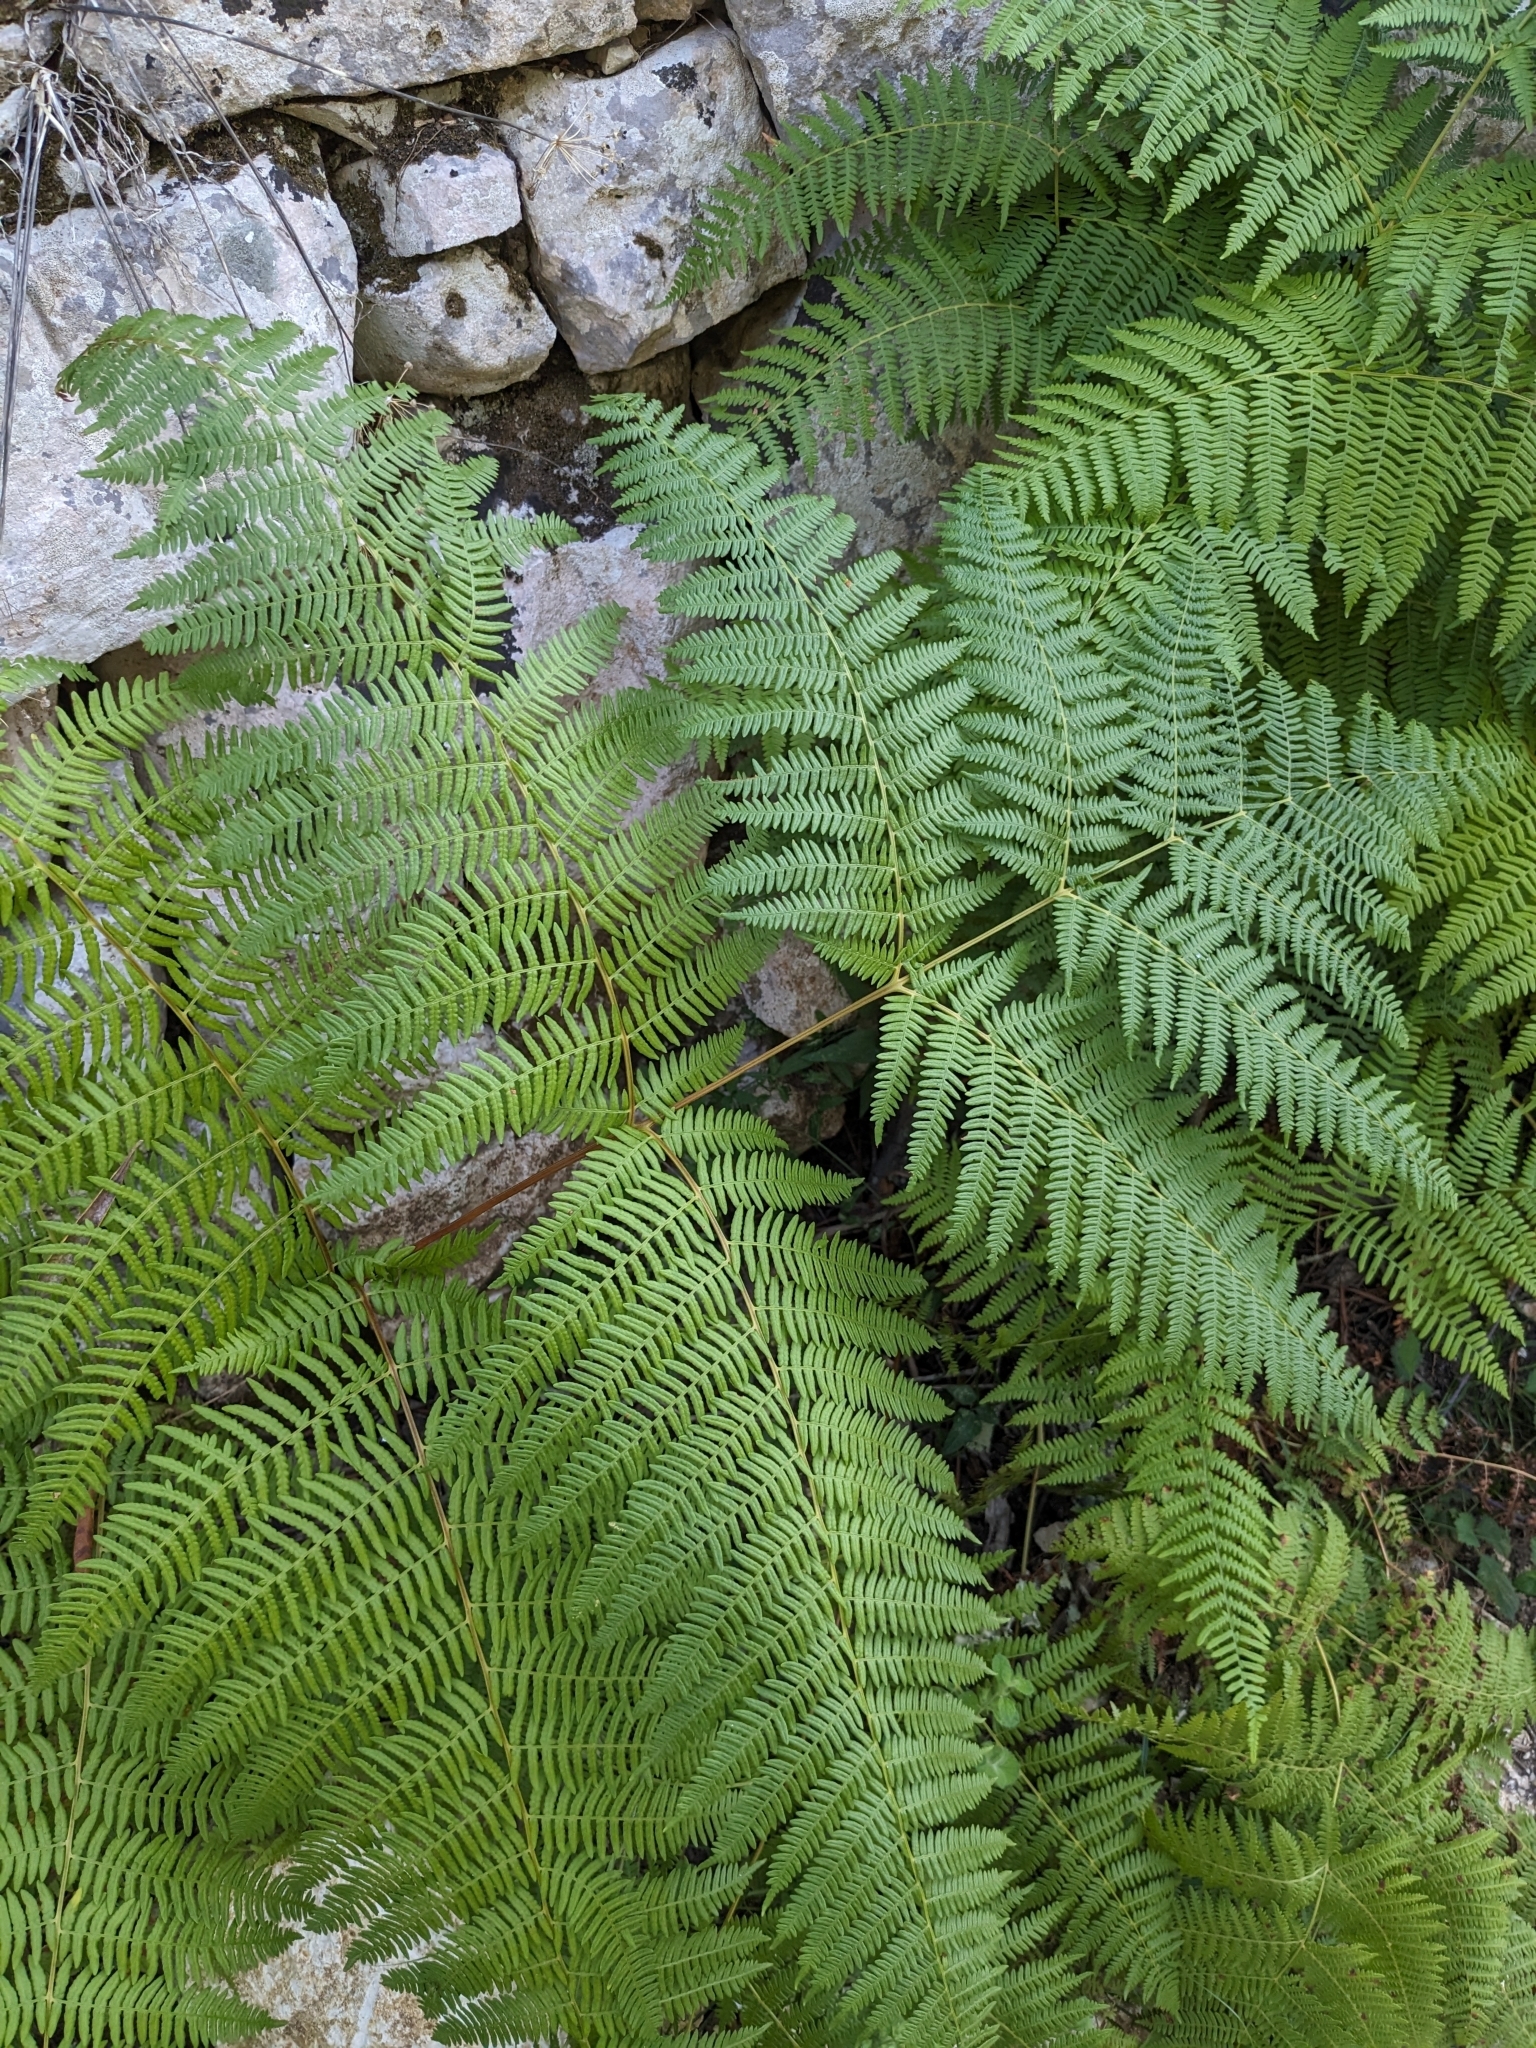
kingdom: Plantae
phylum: Tracheophyta
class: Polypodiopsida
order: Polypodiales
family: Dennstaedtiaceae
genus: Pteridium
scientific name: Pteridium aquilinum
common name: Bracken
